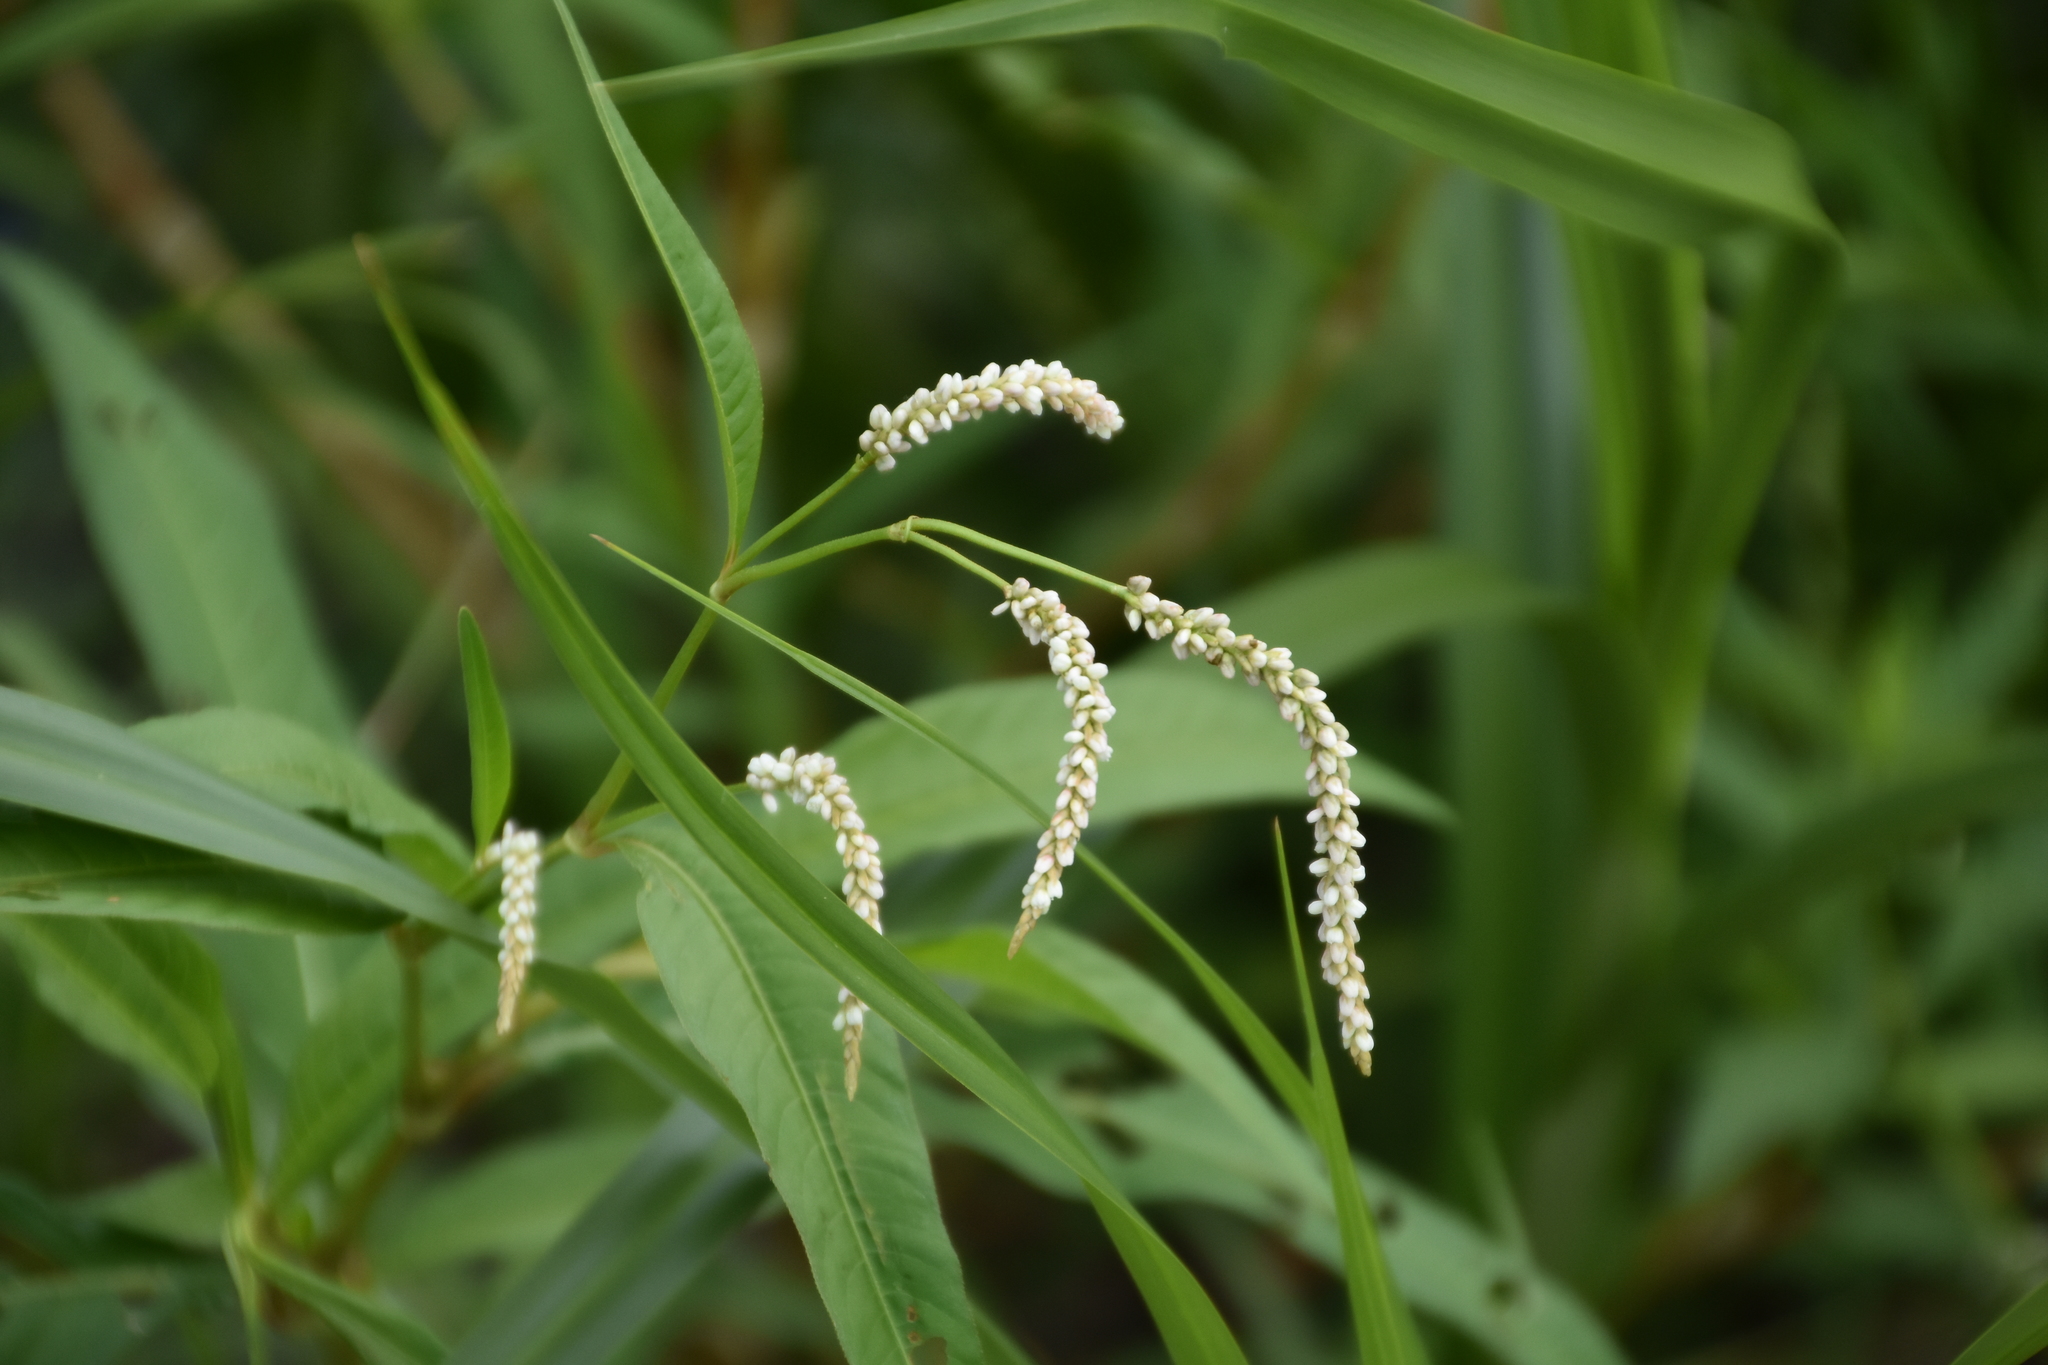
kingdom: Plantae
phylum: Tracheophyta
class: Magnoliopsida
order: Caryophyllales
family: Polygonaceae
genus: Persicaria
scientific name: Persicaria hydropiperoides
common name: Swamp smartweed
